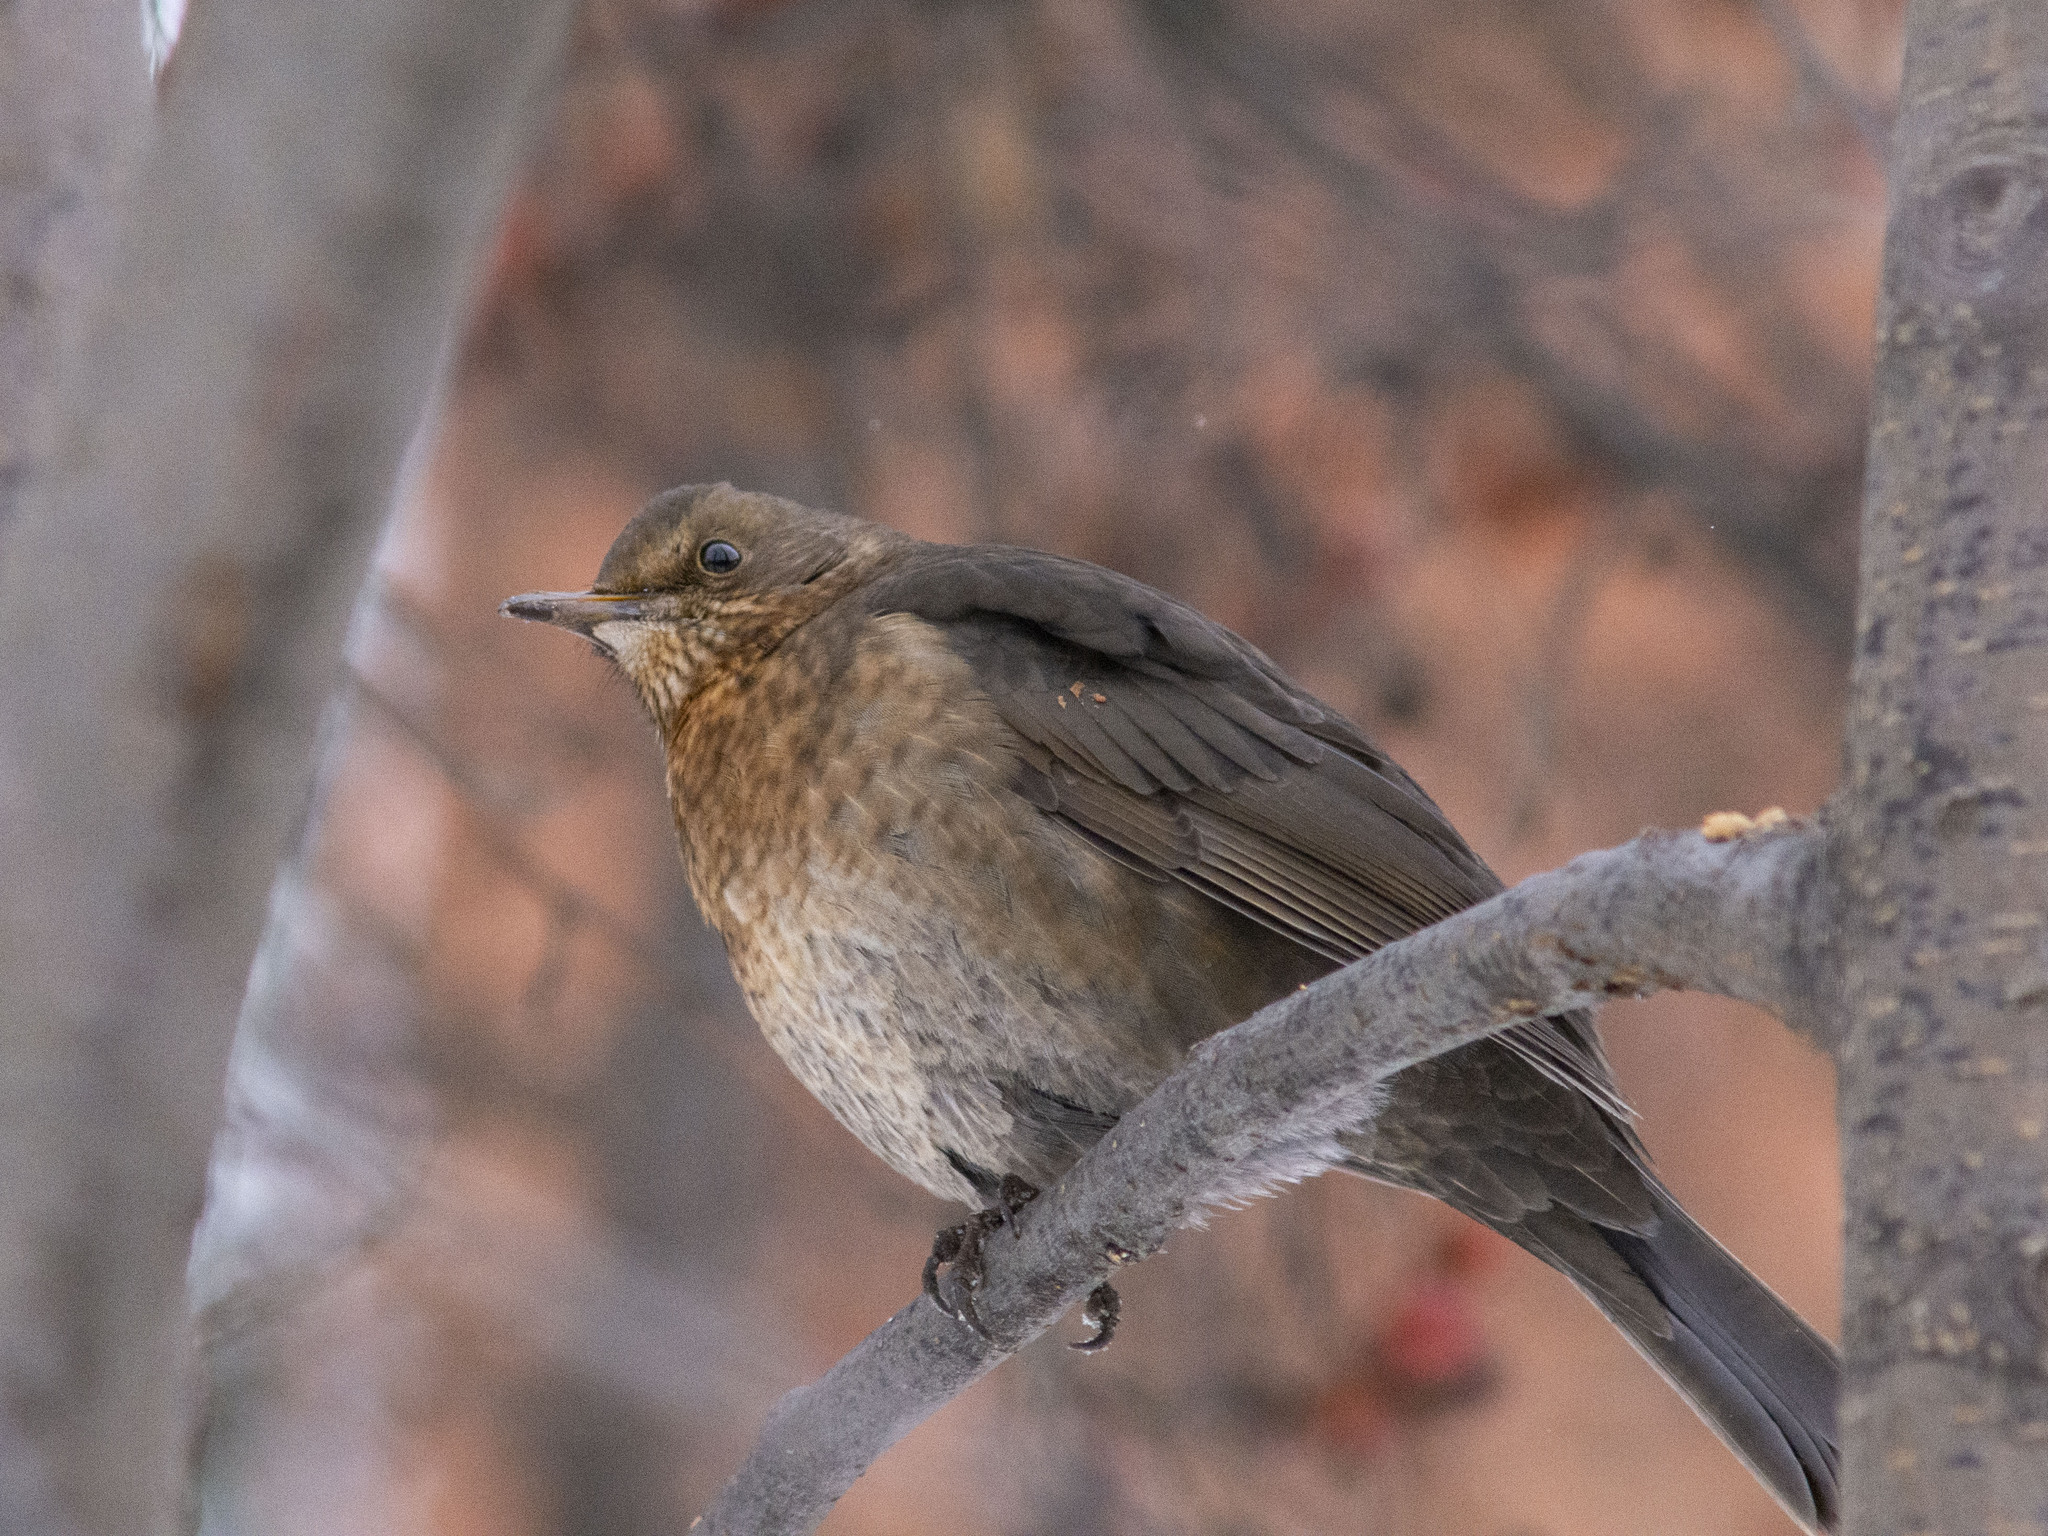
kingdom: Animalia
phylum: Chordata
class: Aves
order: Passeriformes
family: Turdidae
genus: Turdus
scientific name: Turdus merula
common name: Common blackbird
